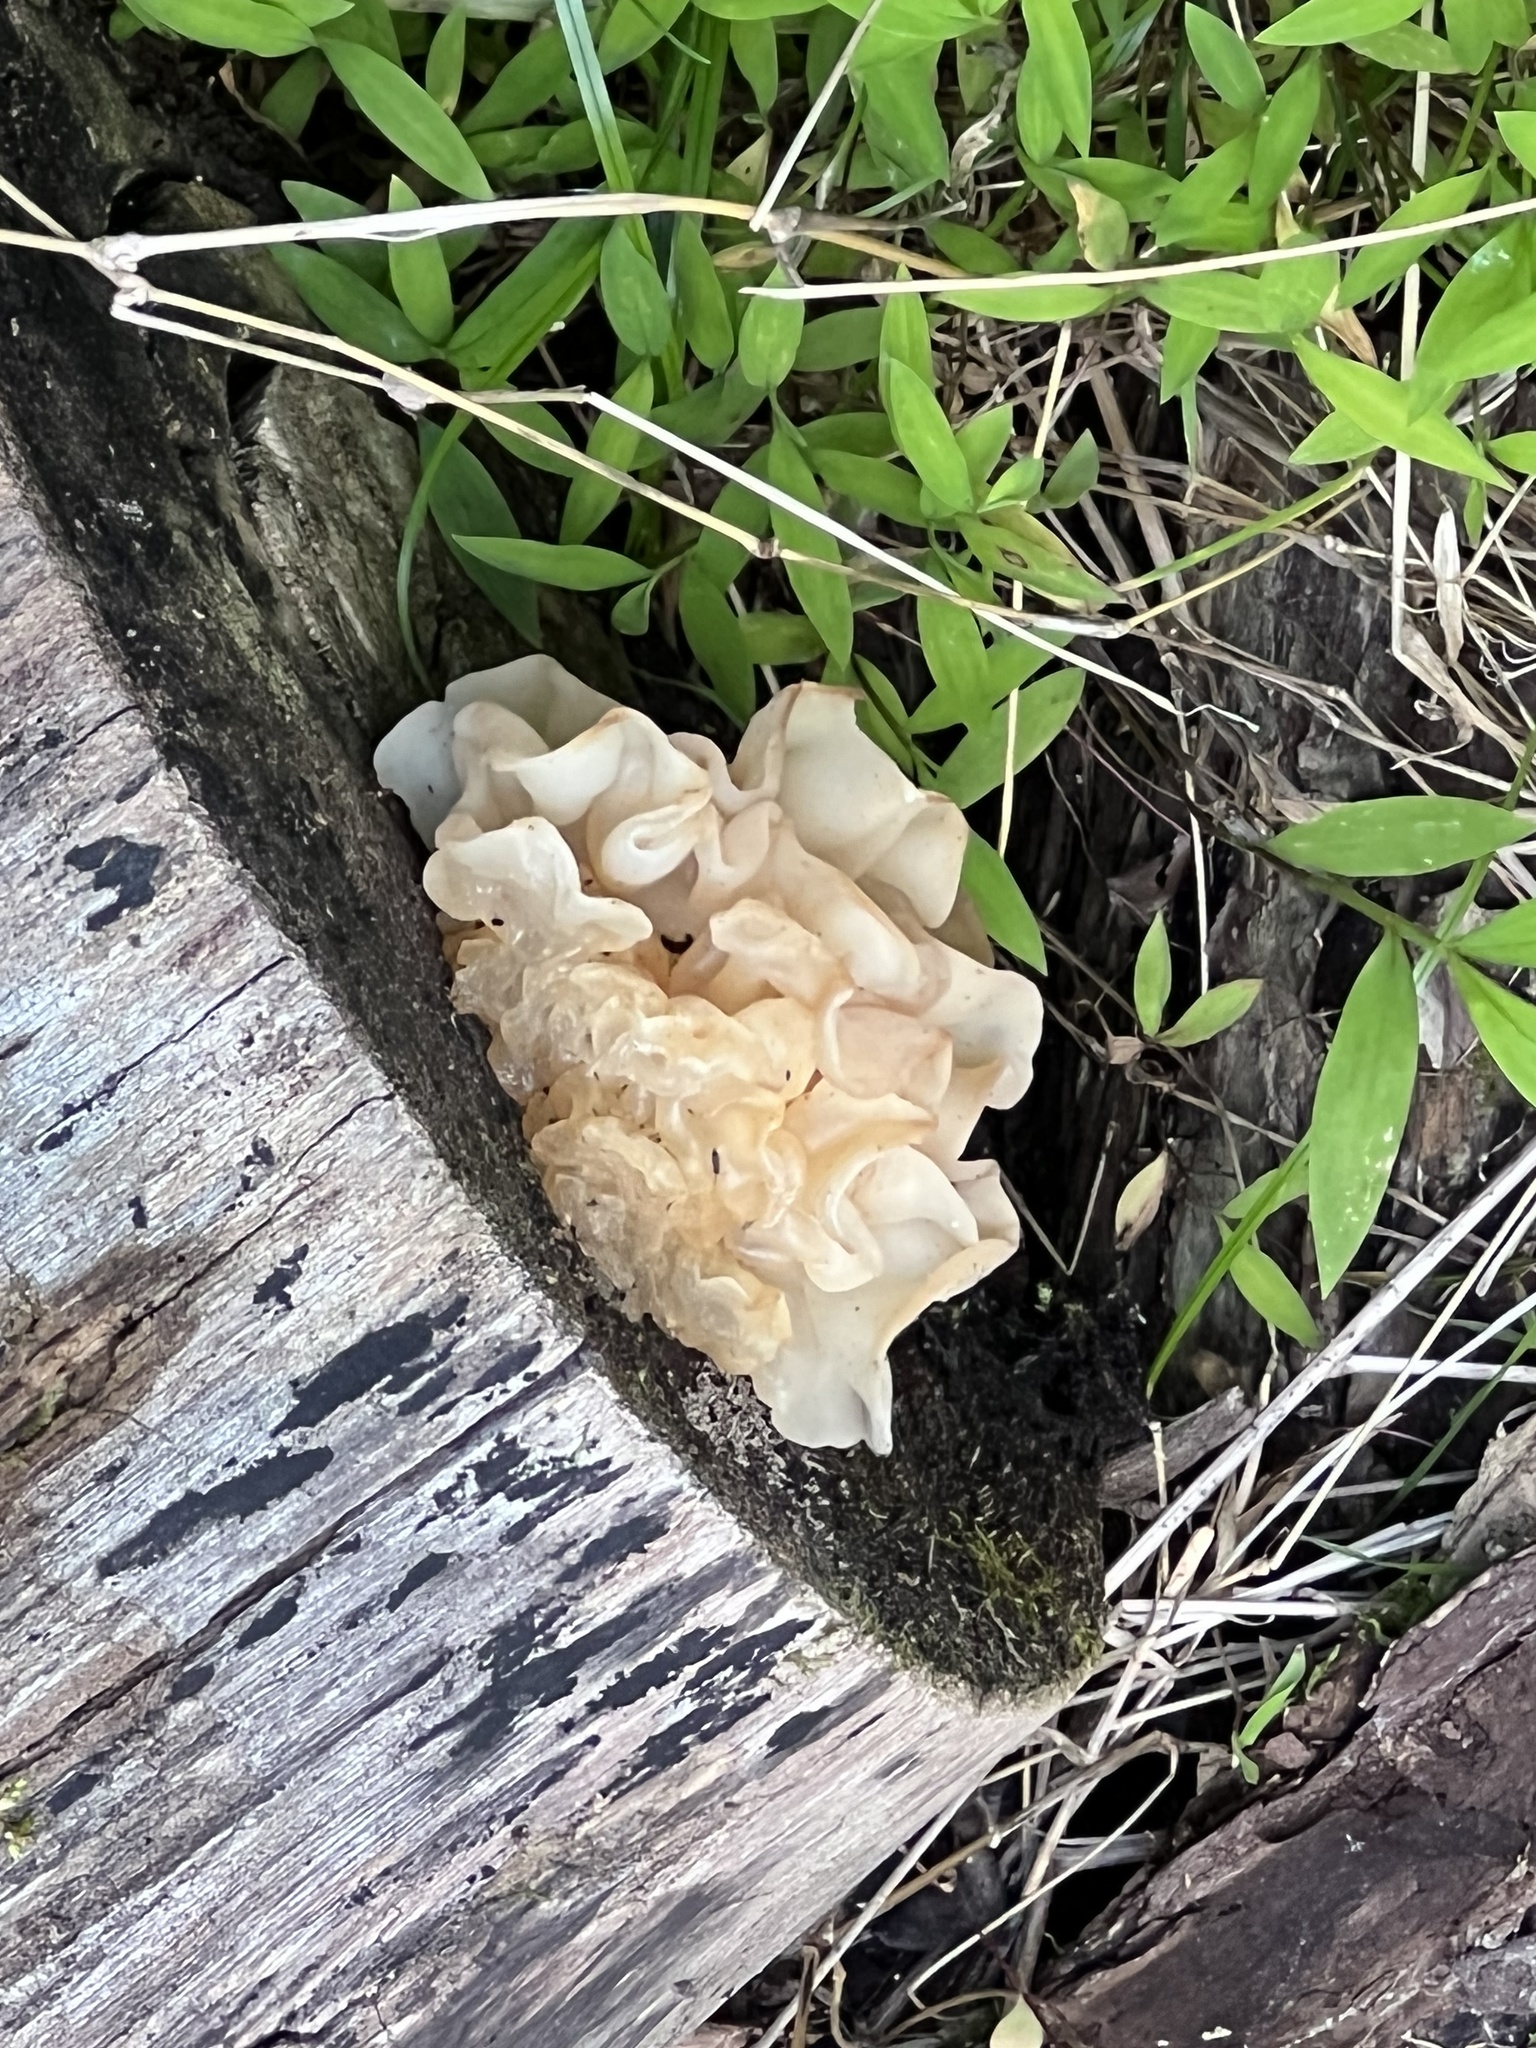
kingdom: Fungi
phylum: Basidiomycota
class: Agaricomycetes
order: Auriculariales
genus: Ductifera
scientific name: Ductifera pululahuana
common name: White jelly fungus
